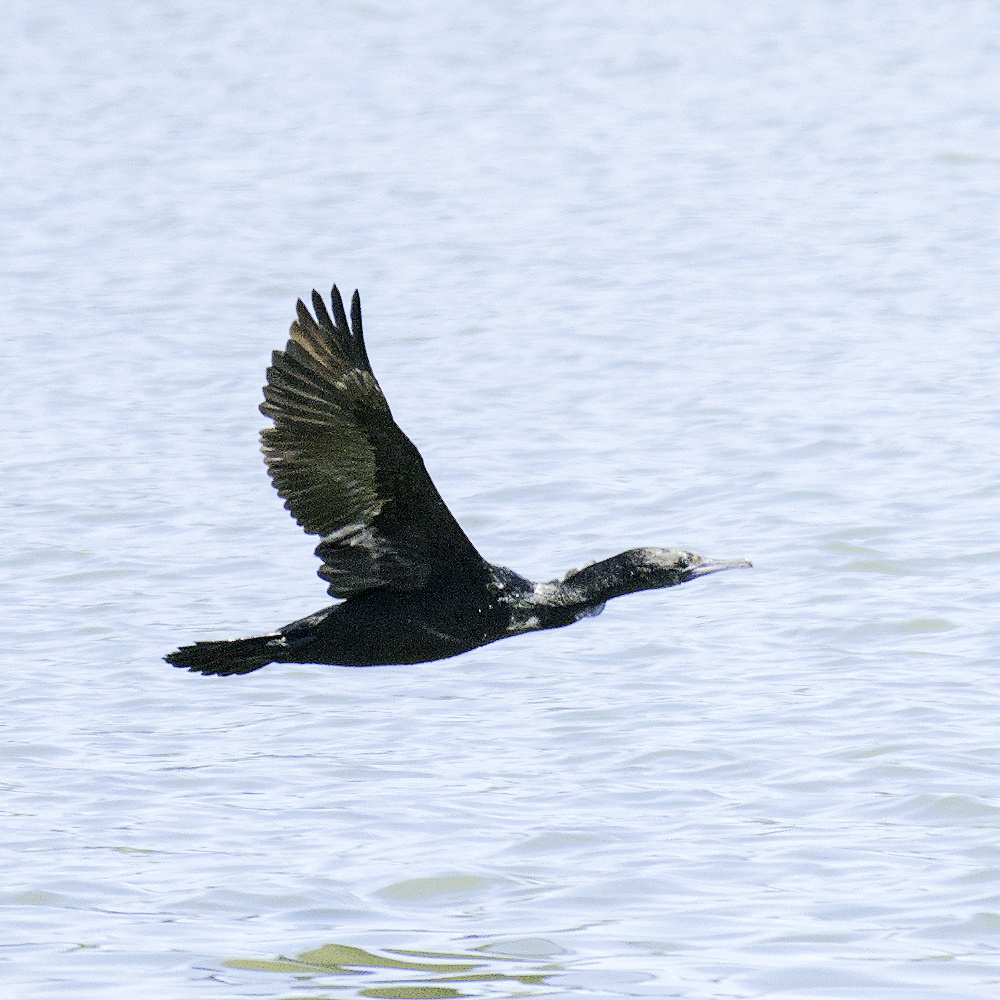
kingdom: Animalia
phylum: Chordata
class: Aves
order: Suliformes
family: Phalacrocoracidae
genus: Phalacrocorax
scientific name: Phalacrocorax sulcirostris
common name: Little black cormorant
